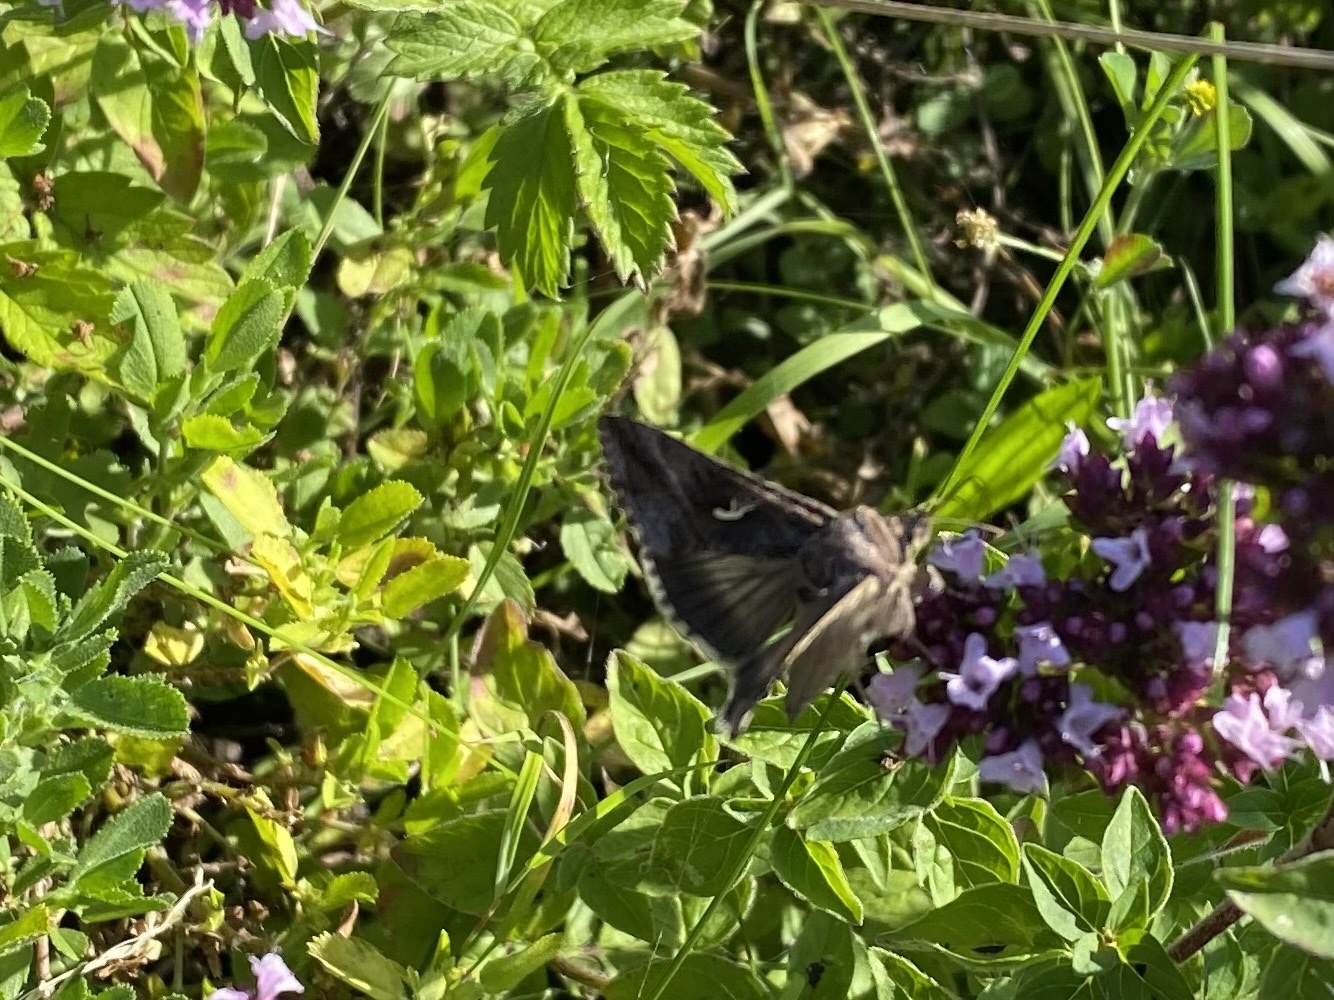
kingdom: Animalia
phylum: Arthropoda
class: Insecta
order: Lepidoptera
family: Noctuidae
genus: Autographa
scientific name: Autographa gamma
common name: Silver y
